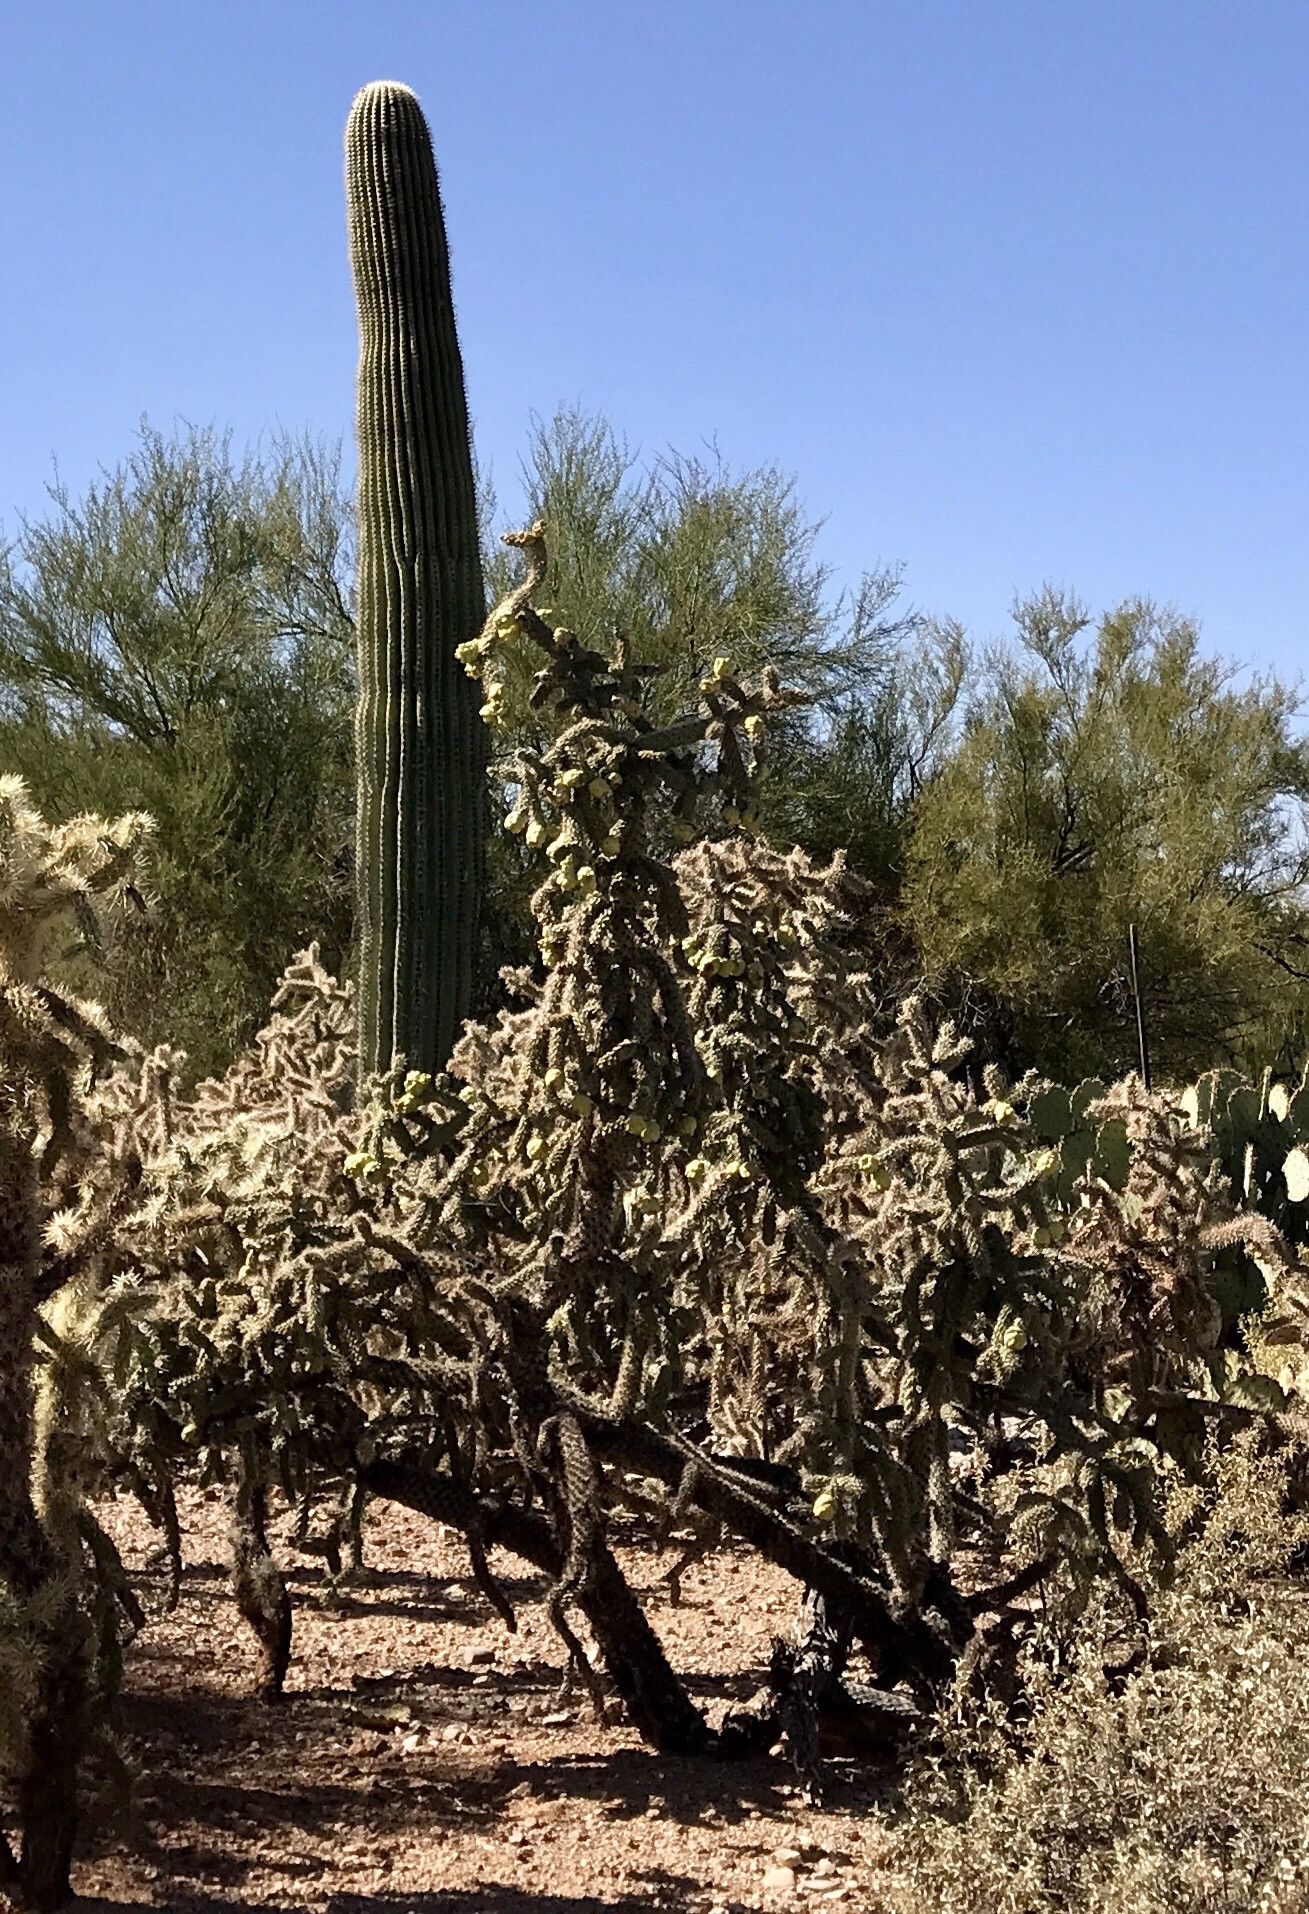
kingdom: Plantae
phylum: Tracheophyta
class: Magnoliopsida
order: Caryophyllales
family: Cactaceae
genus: Cylindropuntia
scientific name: Cylindropuntia fulgida
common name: Jumping cholla
